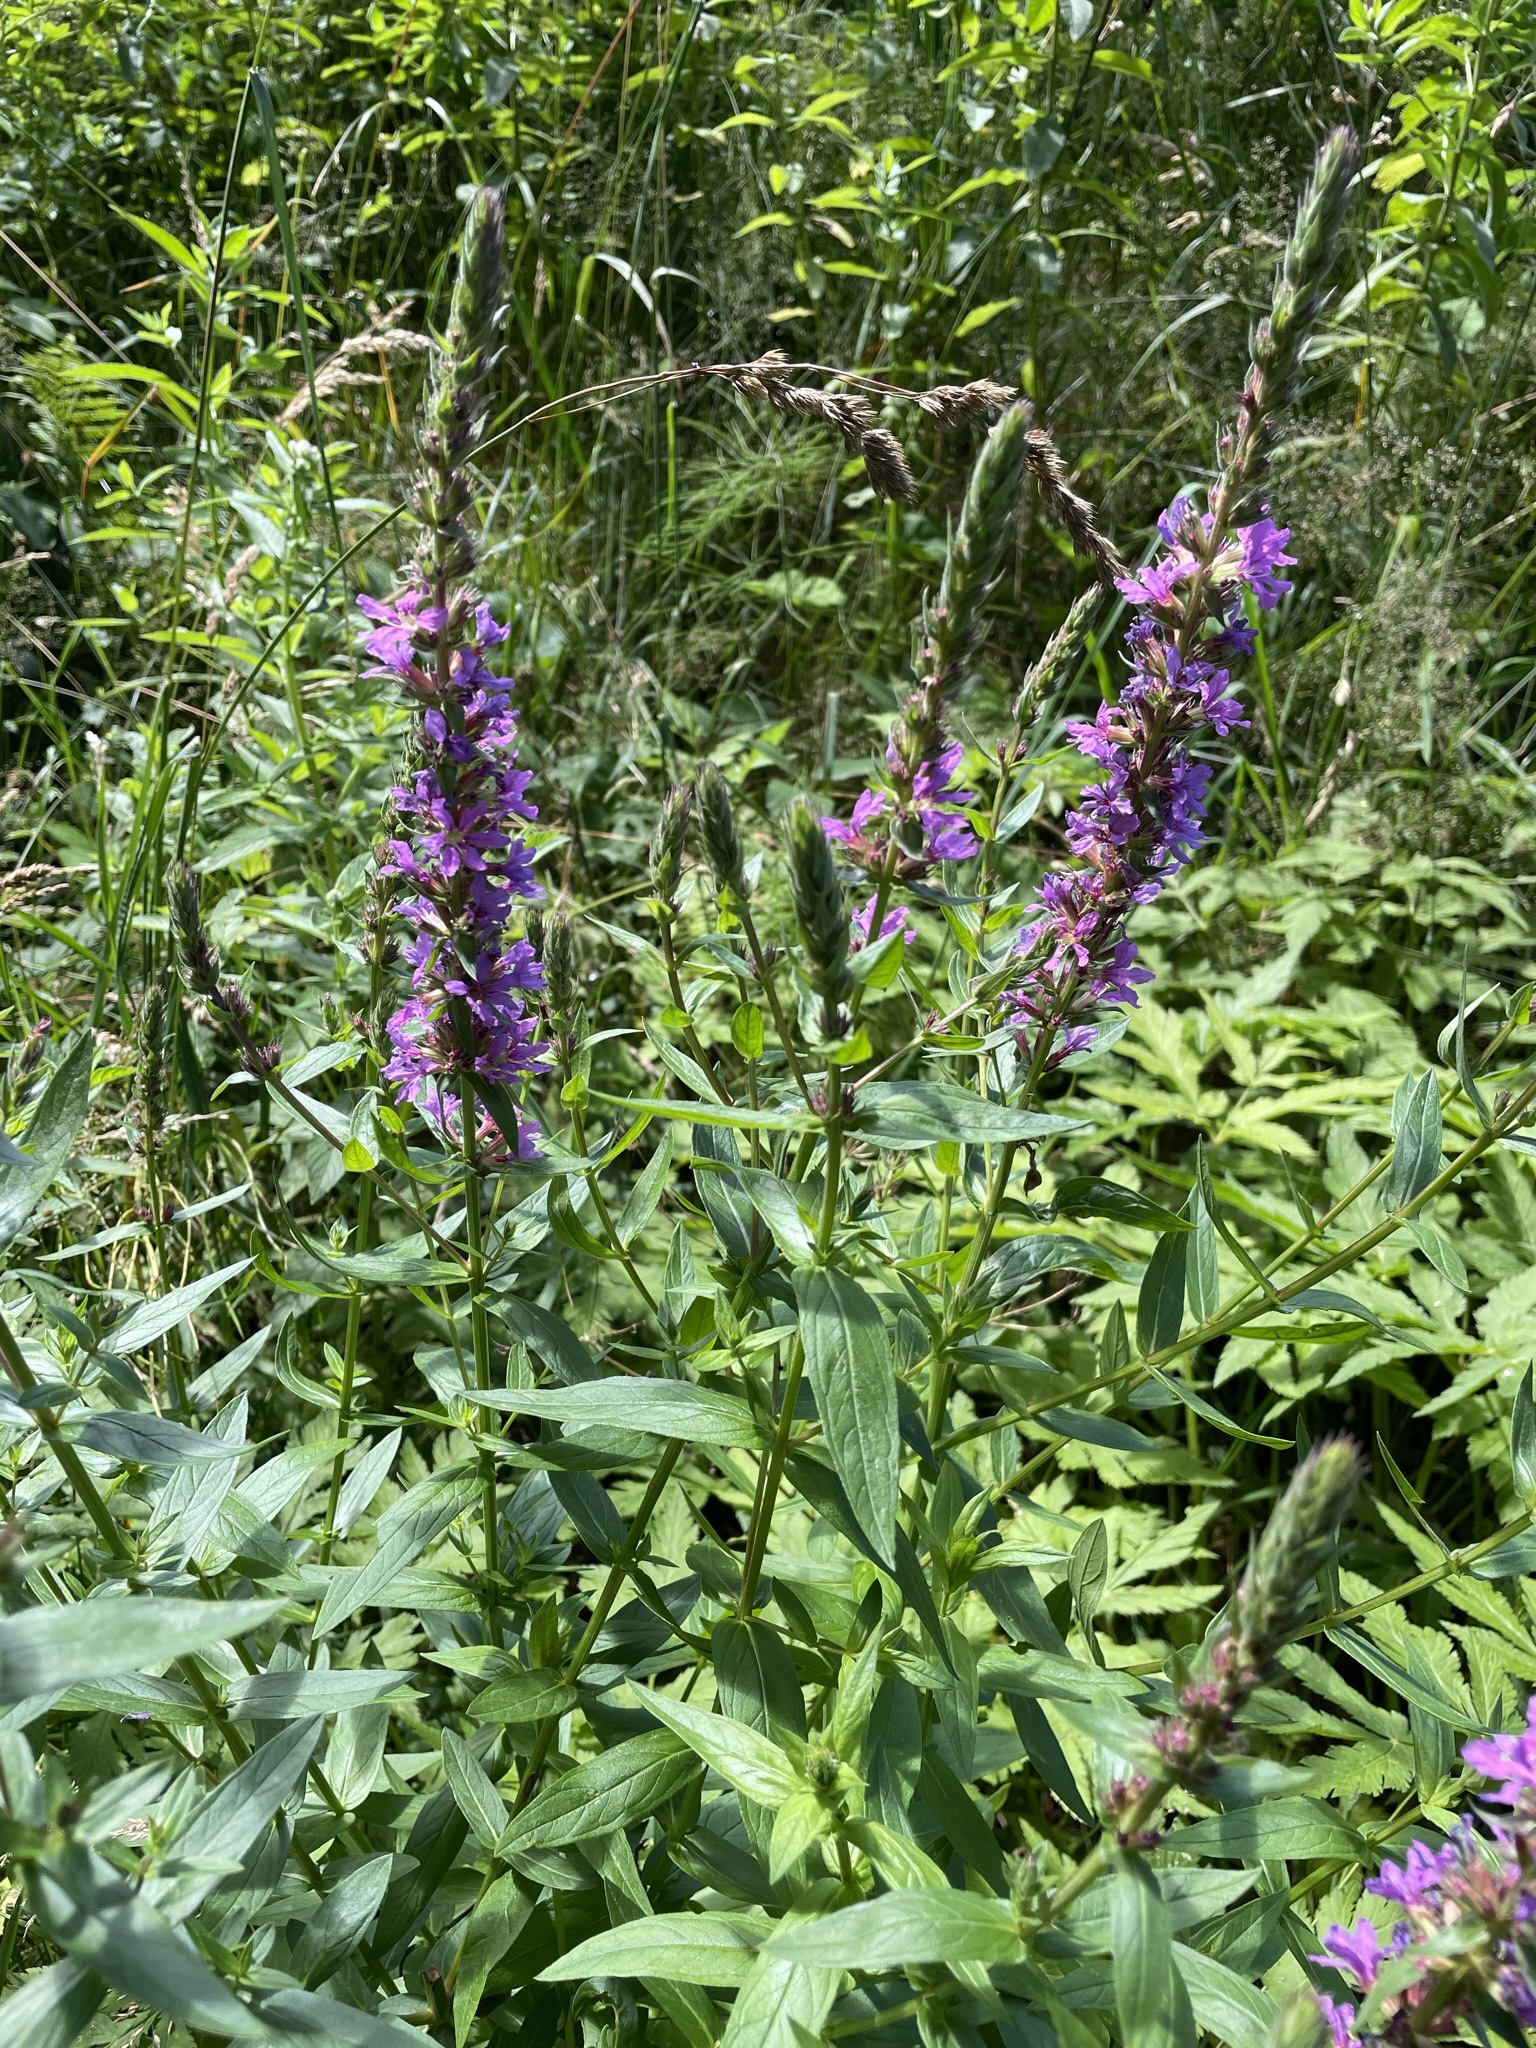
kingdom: Plantae
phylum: Tracheophyta
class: Magnoliopsida
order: Myrtales
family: Lythraceae
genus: Lythrum
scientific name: Lythrum salicaria
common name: Purple loosestrife
